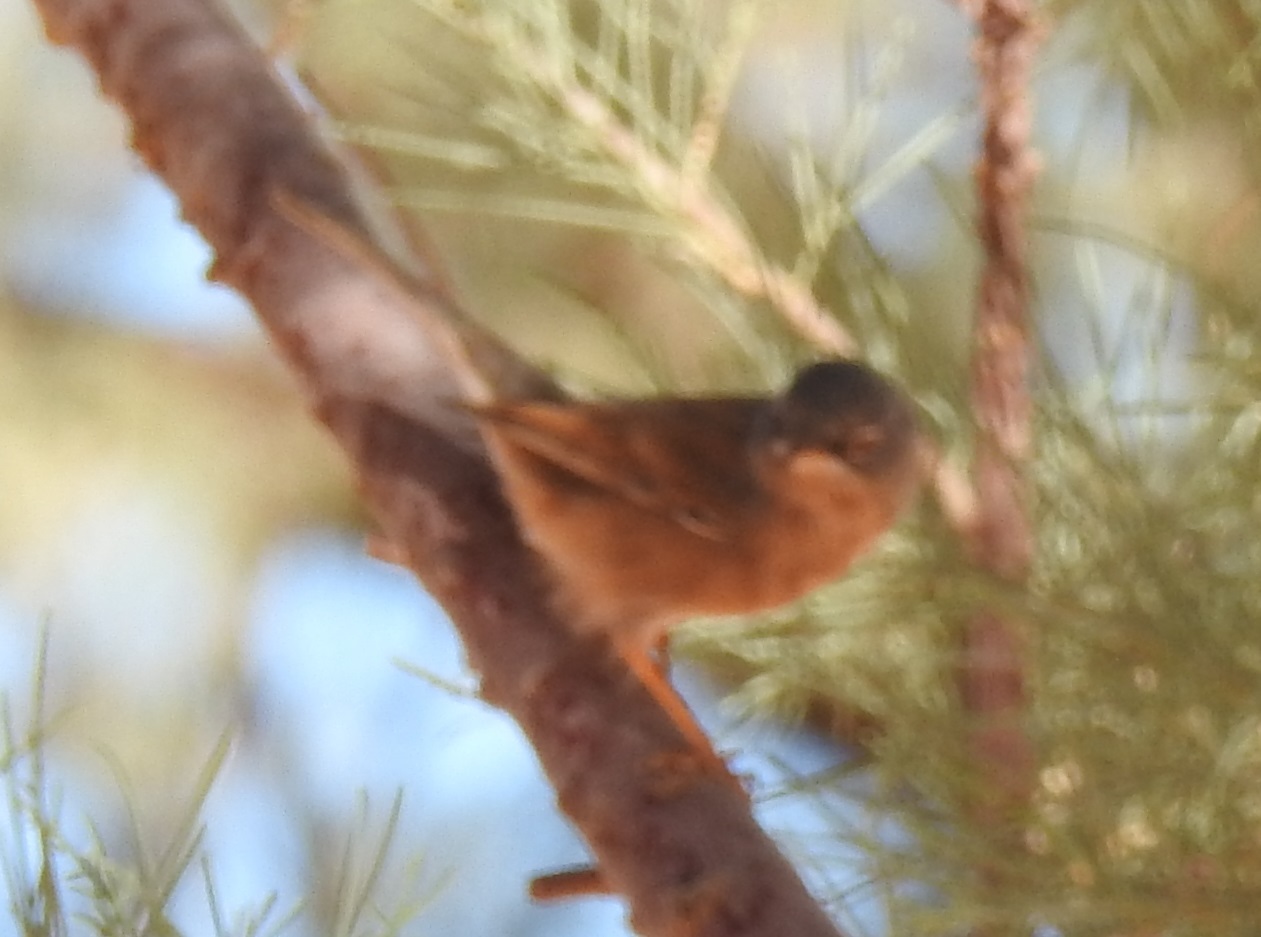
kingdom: Animalia
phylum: Chordata
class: Aves
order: Passeriformes
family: Sylviidae
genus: Sylvia
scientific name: Sylvia deserticola
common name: Tristram's warbler
